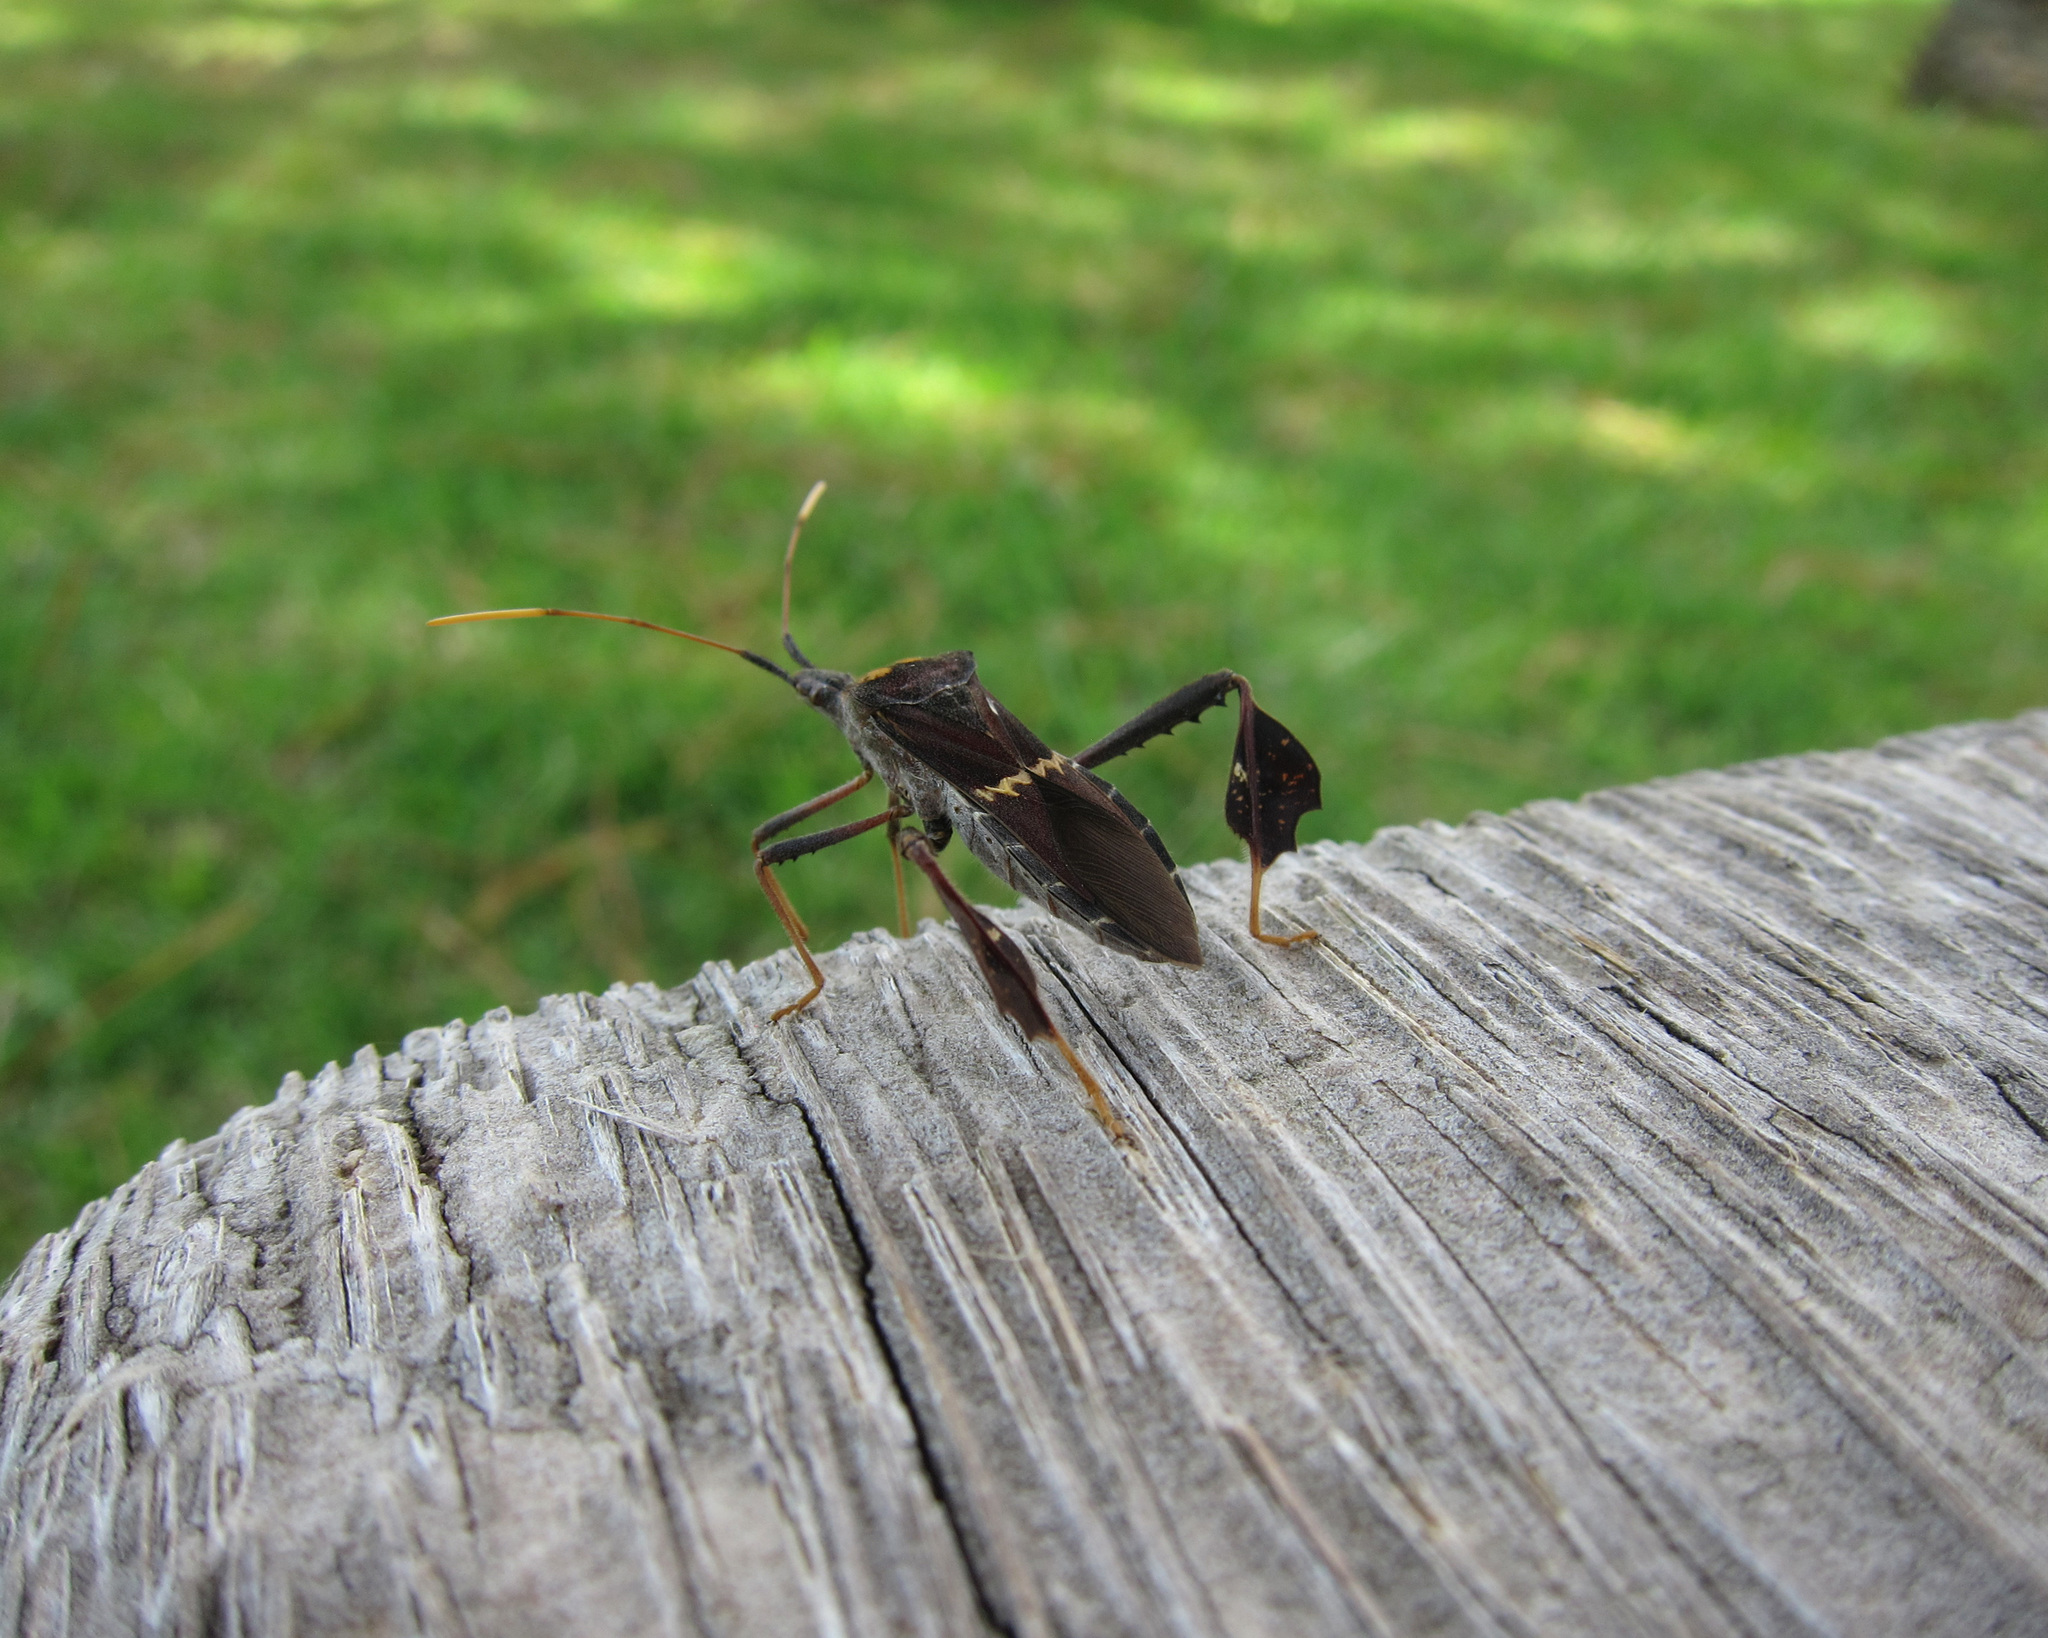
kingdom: Animalia
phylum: Arthropoda
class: Insecta
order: Hemiptera
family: Coreidae
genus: Leptoglossus
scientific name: Leptoglossus zonatus
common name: Large-legged bug
